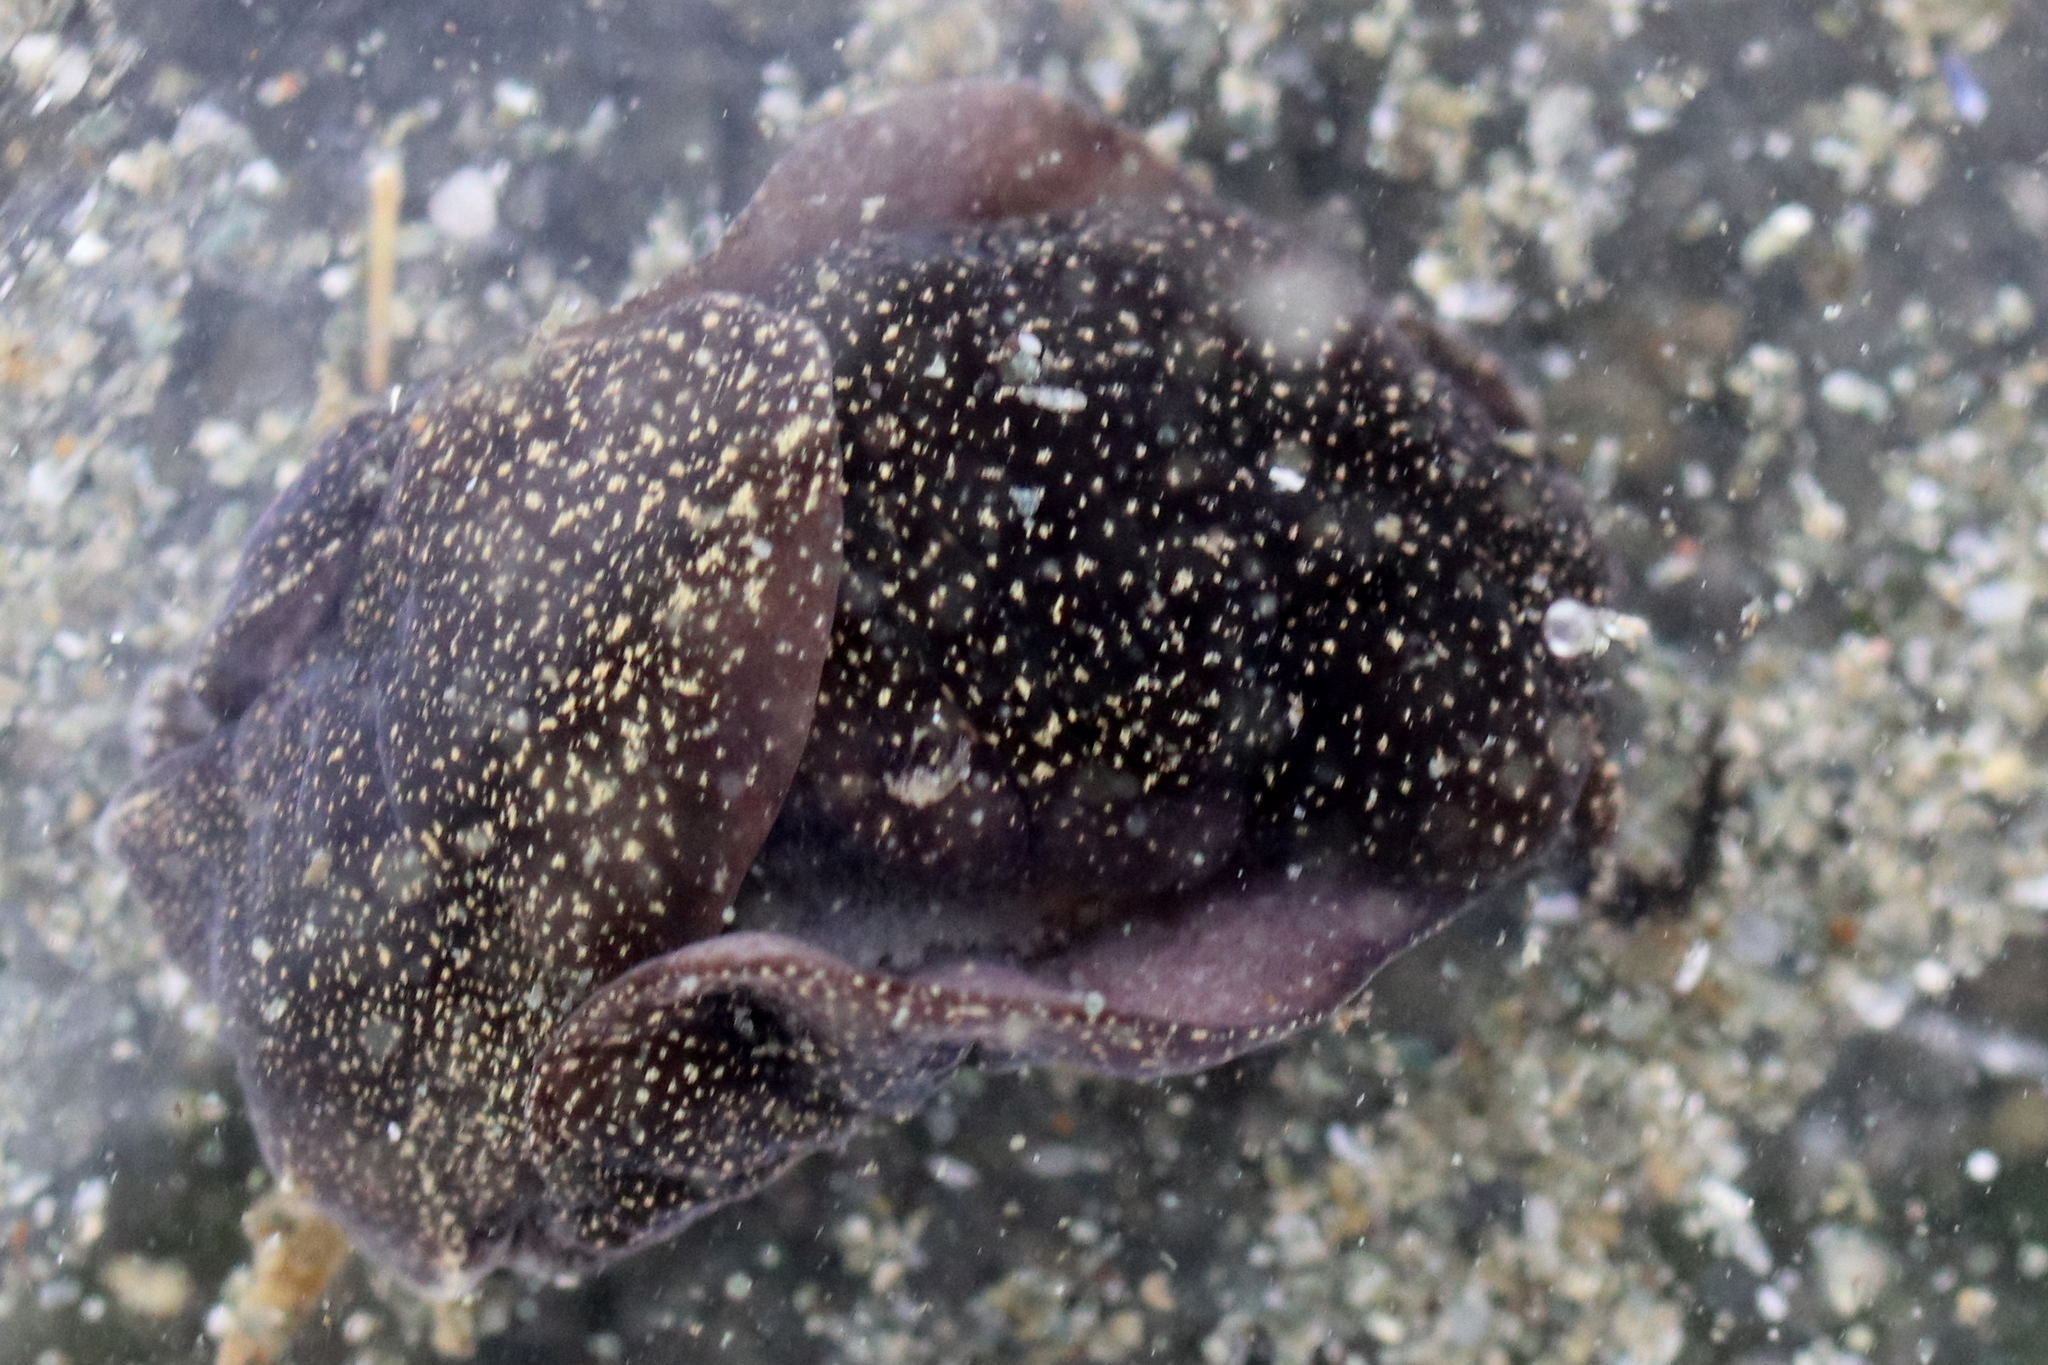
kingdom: Animalia
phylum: Mollusca
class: Gastropoda
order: Cephalaspidea
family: Aglajidae
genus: Aglaja
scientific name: Aglaja ocelligera
